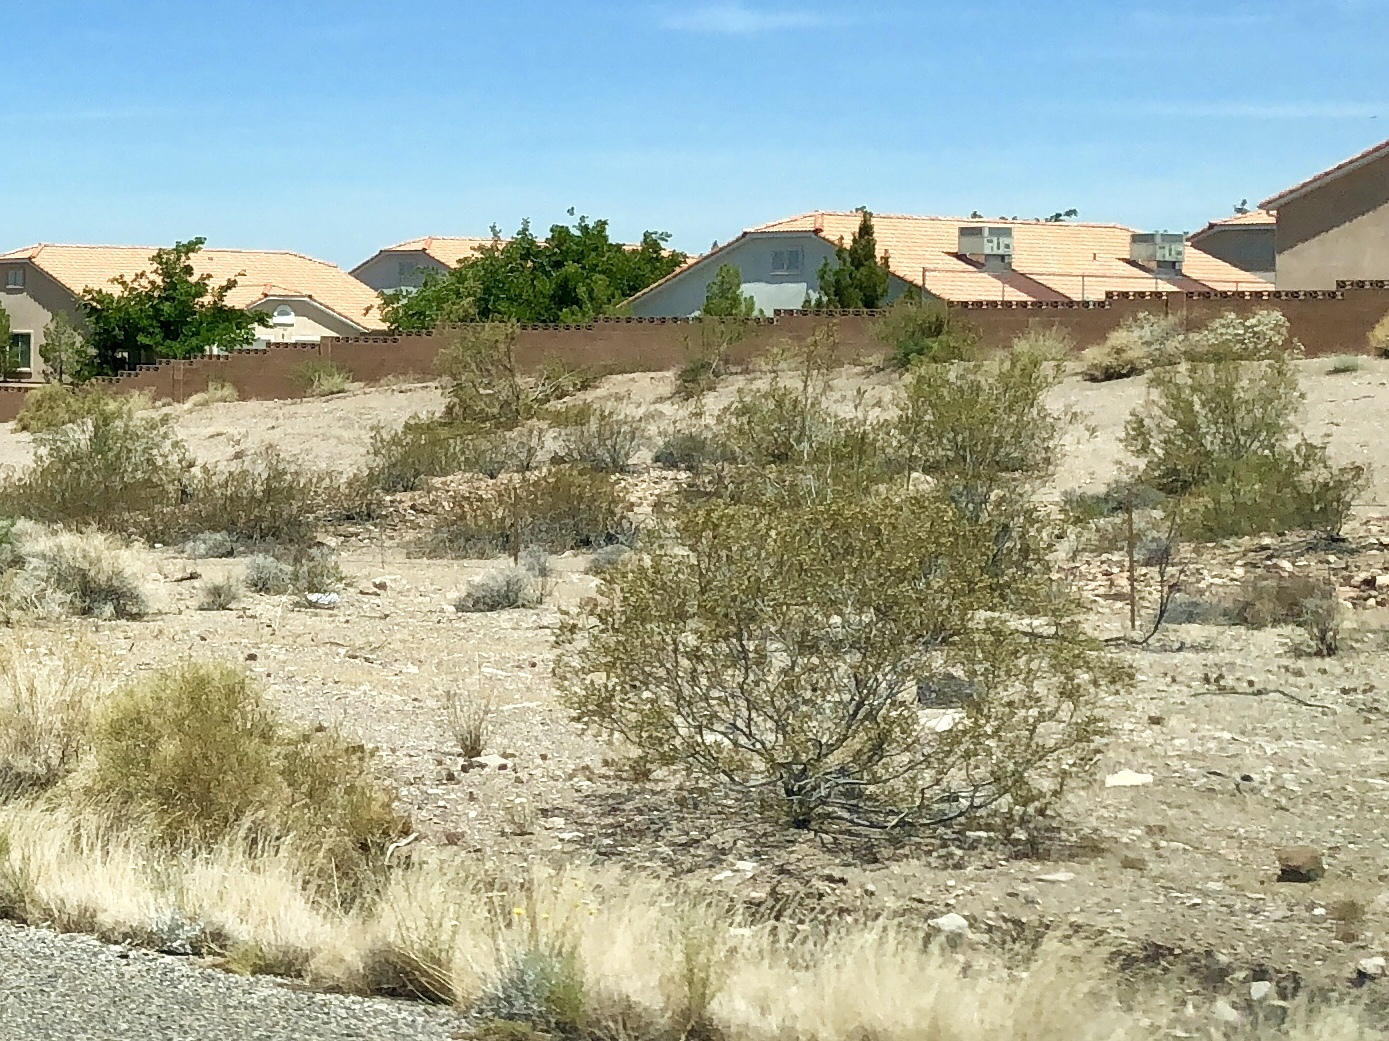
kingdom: Plantae
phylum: Tracheophyta
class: Magnoliopsida
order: Zygophyllales
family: Zygophyllaceae
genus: Larrea
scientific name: Larrea tridentata
